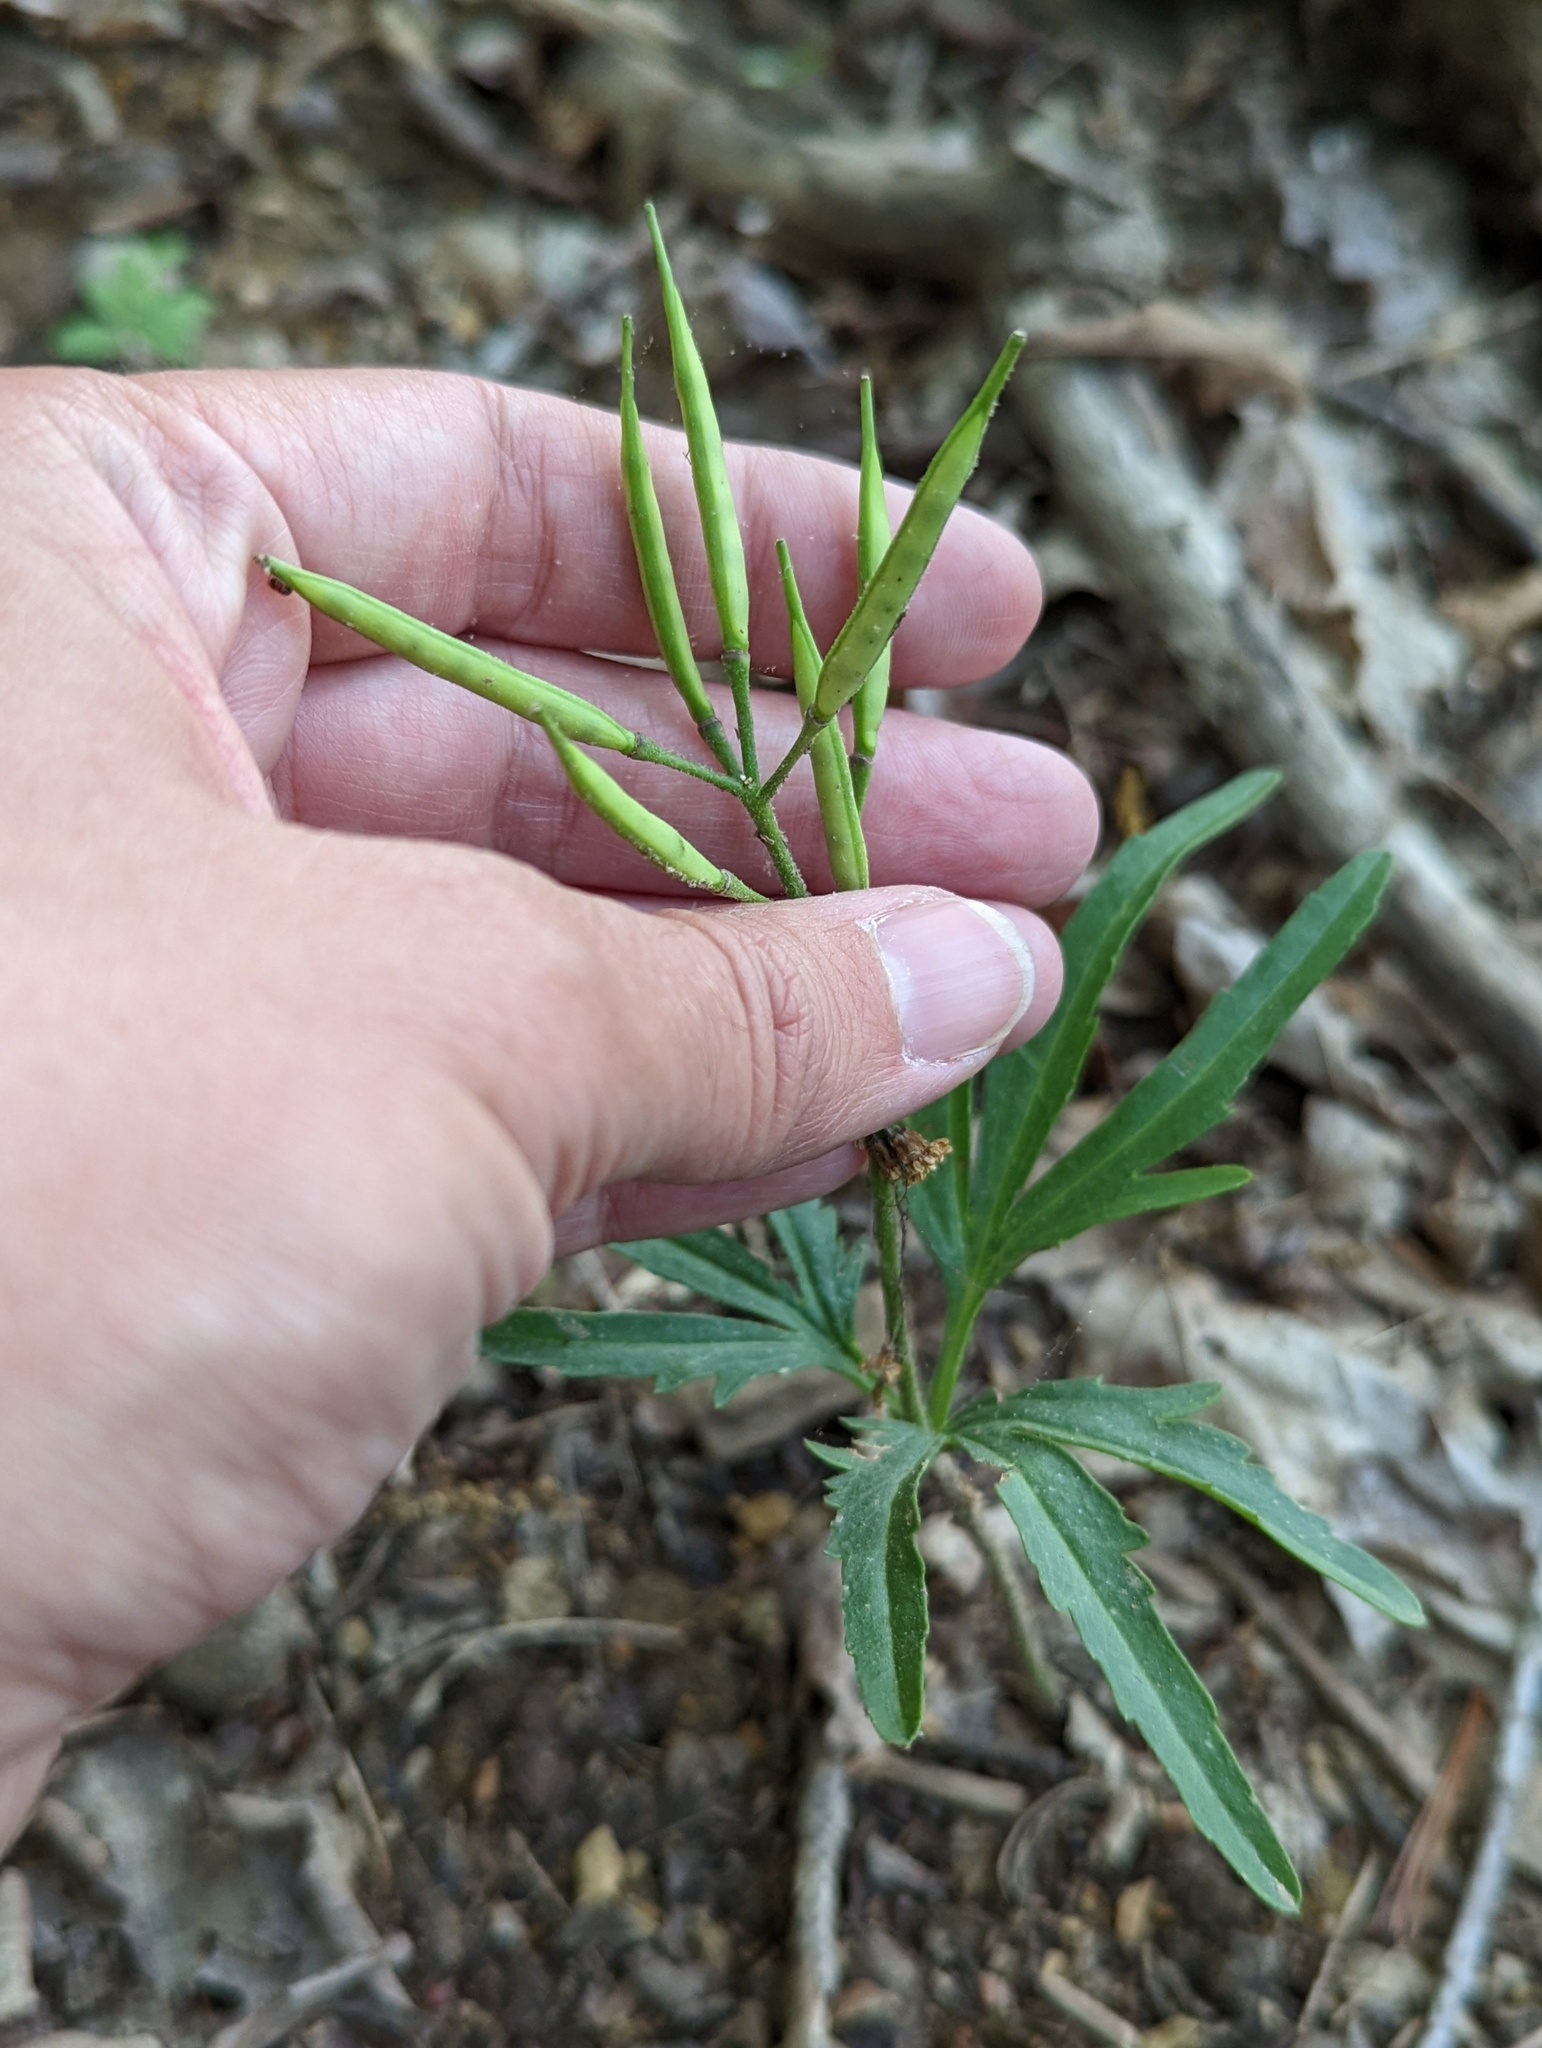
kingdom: Plantae
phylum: Tracheophyta
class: Magnoliopsida
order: Brassicales
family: Brassicaceae
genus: Cardamine
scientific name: Cardamine concatenata
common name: Cut-leaf toothcup
